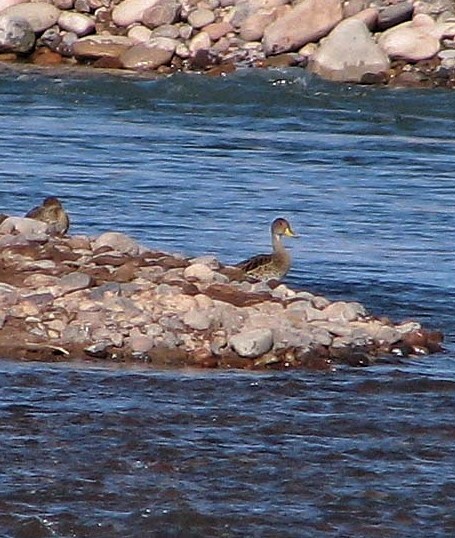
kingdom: Animalia
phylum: Chordata
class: Aves
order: Anseriformes
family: Anatidae
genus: Anas
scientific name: Anas georgica
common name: Yellow-billed pintail
